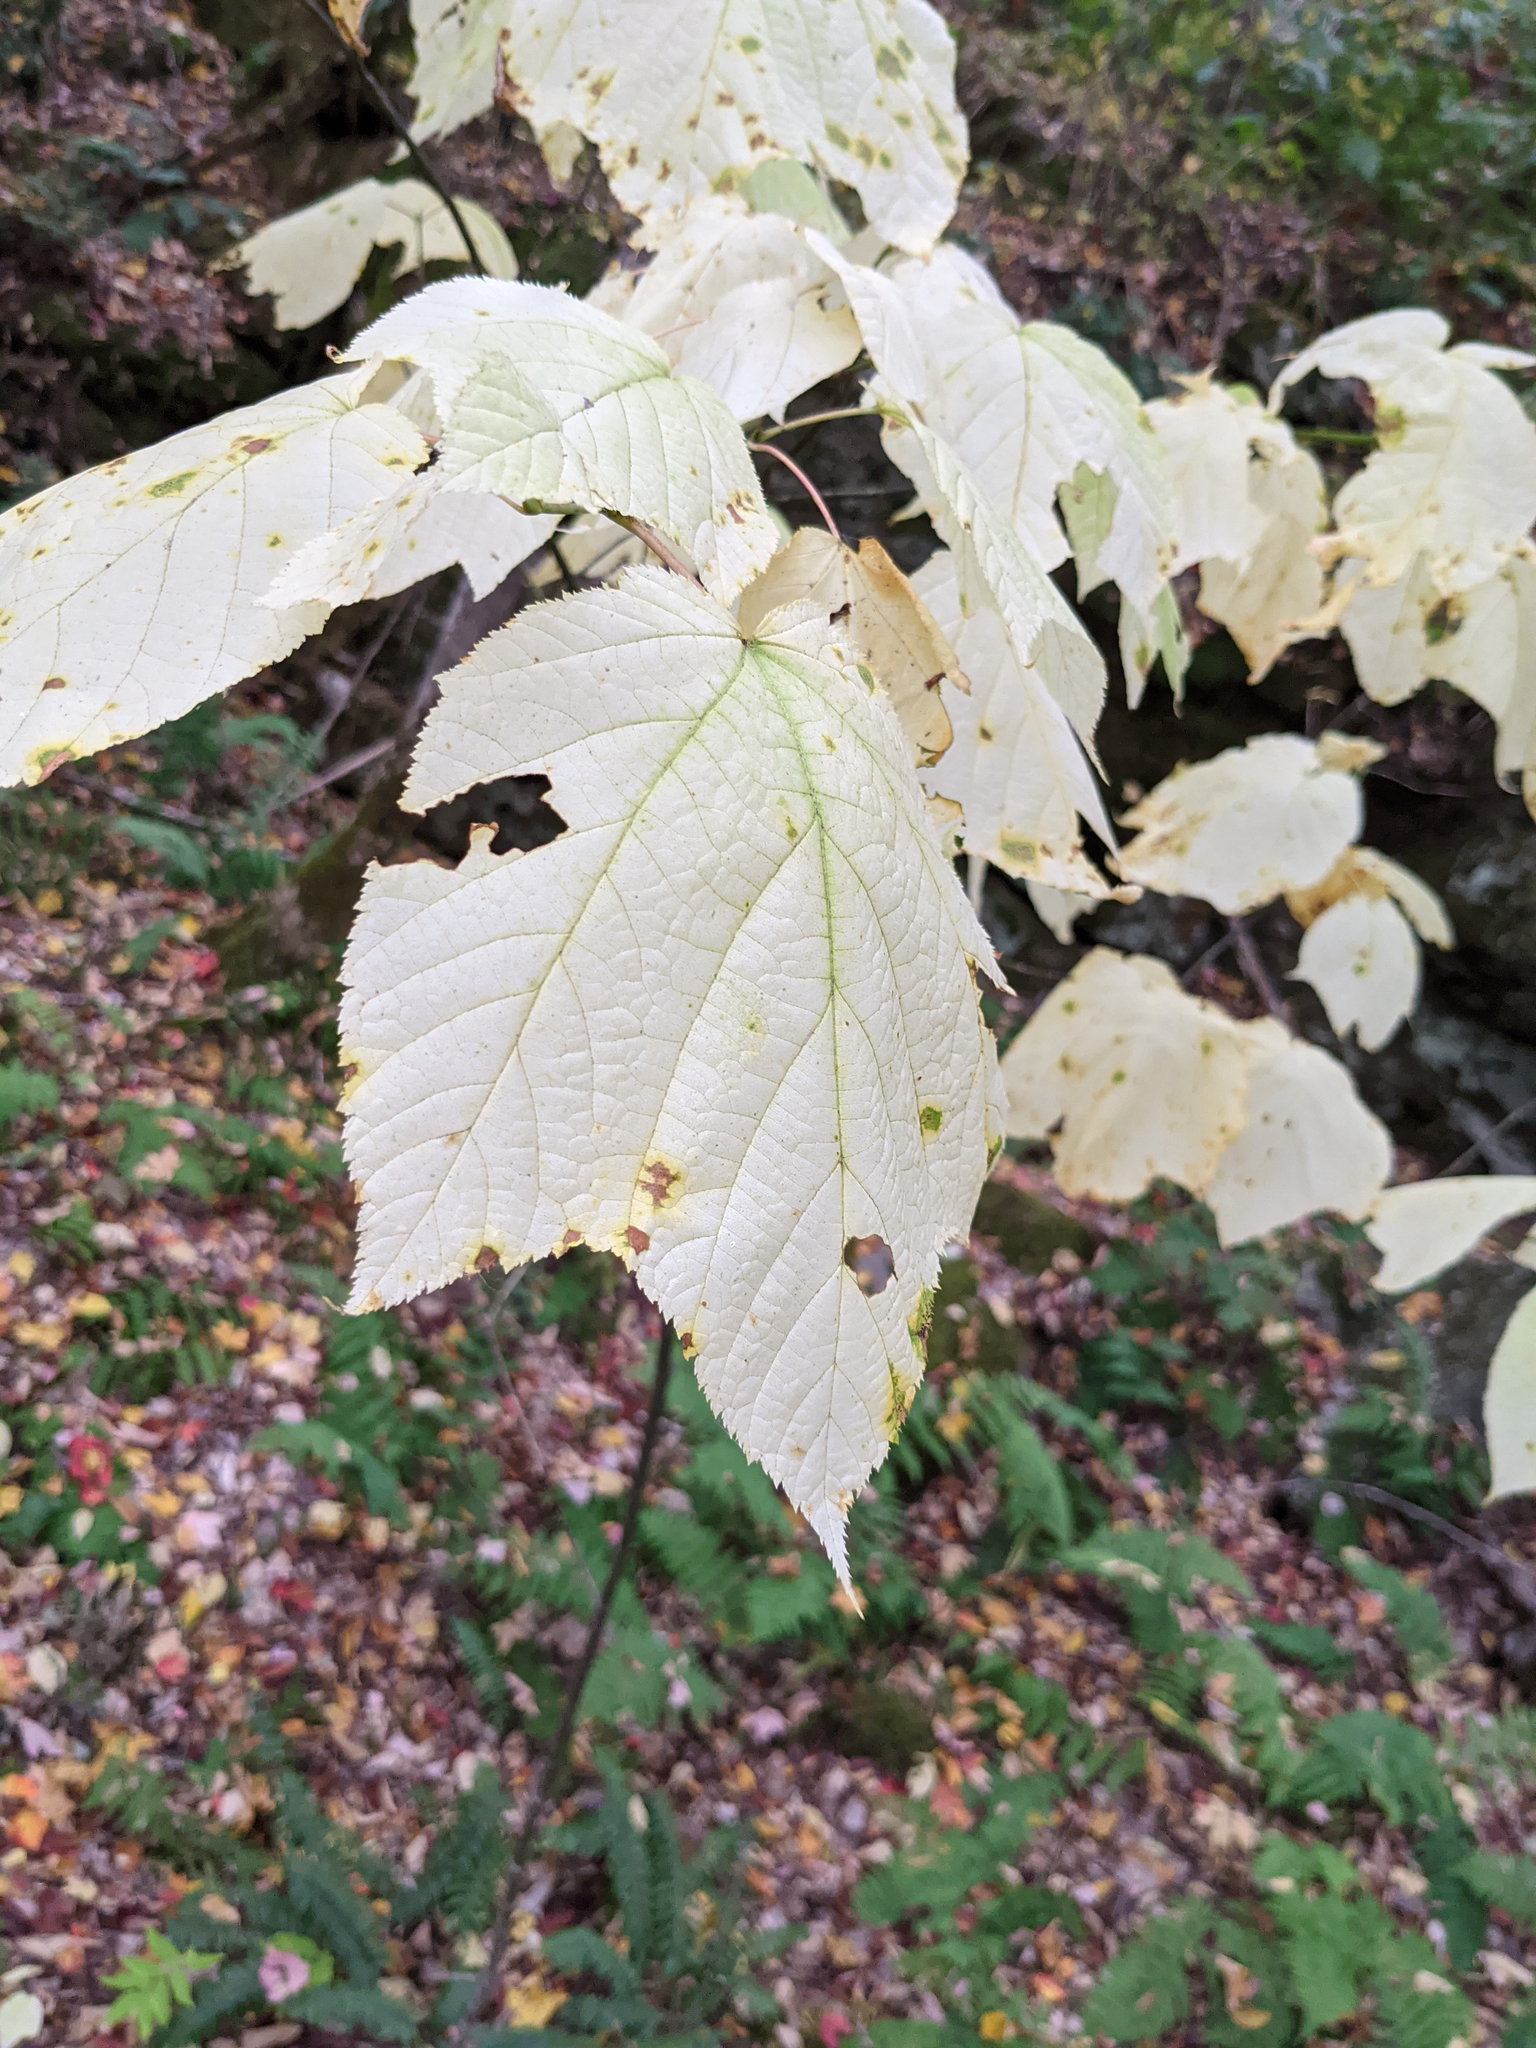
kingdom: Plantae
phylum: Tracheophyta
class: Magnoliopsida
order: Sapindales
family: Sapindaceae
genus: Acer
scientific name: Acer pensylvanicum
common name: Moosewood
